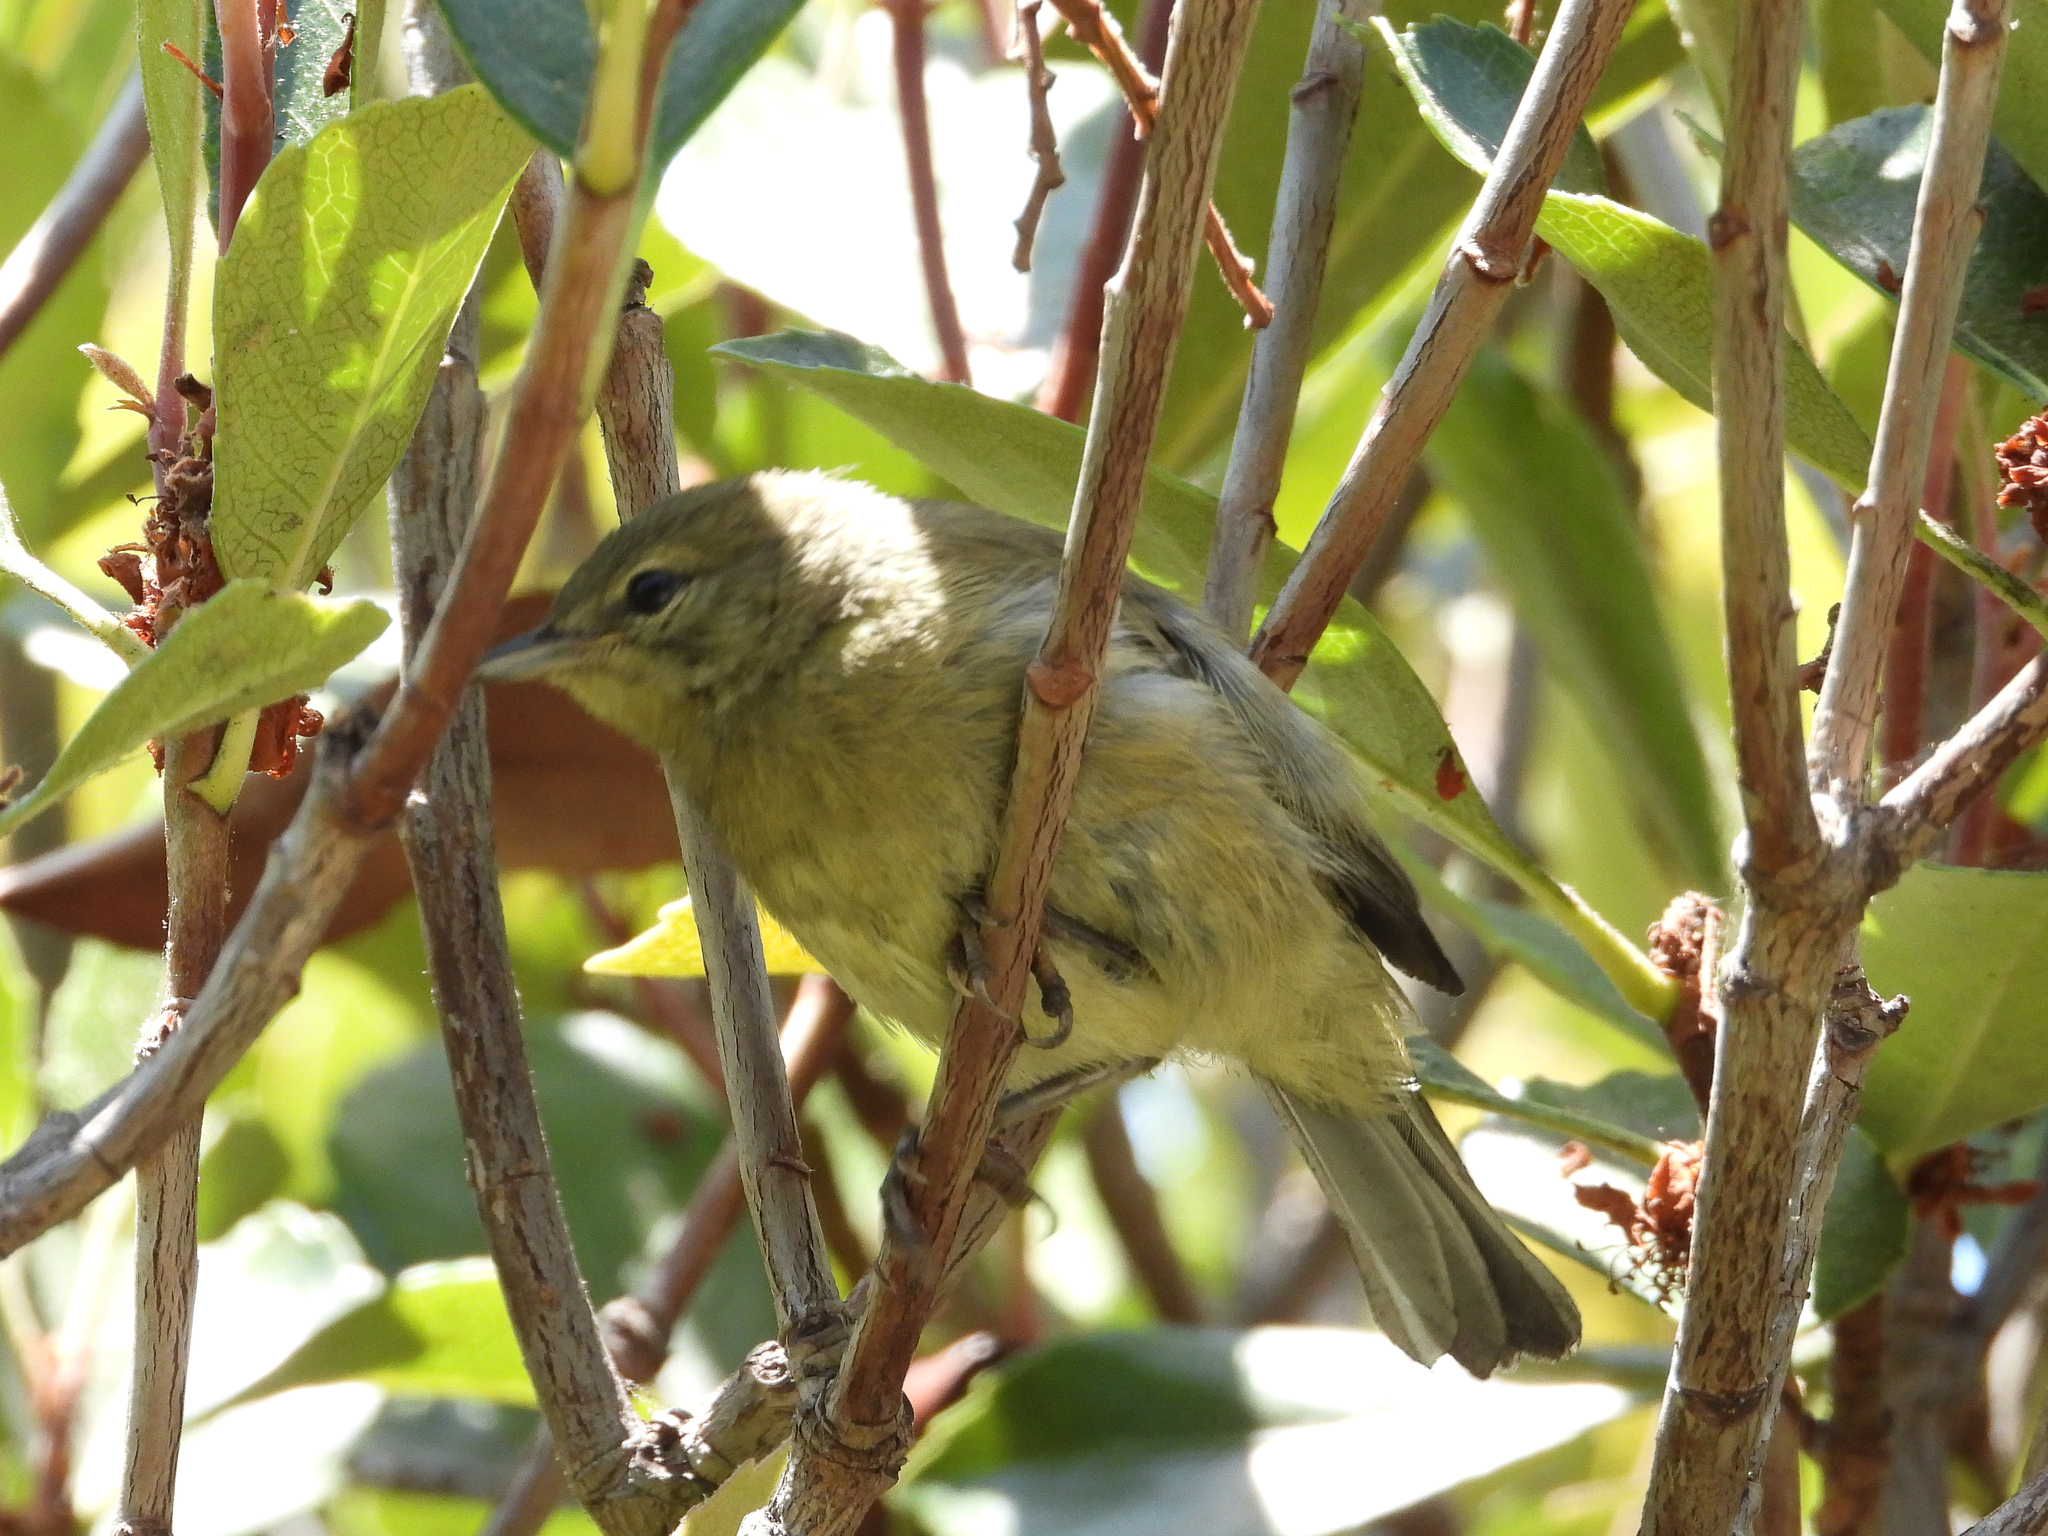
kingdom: Animalia
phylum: Chordata
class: Aves
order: Passeriformes
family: Parulidae
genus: Leiothlypis
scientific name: Leiothlypis celata
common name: Orange-crowned warbler
